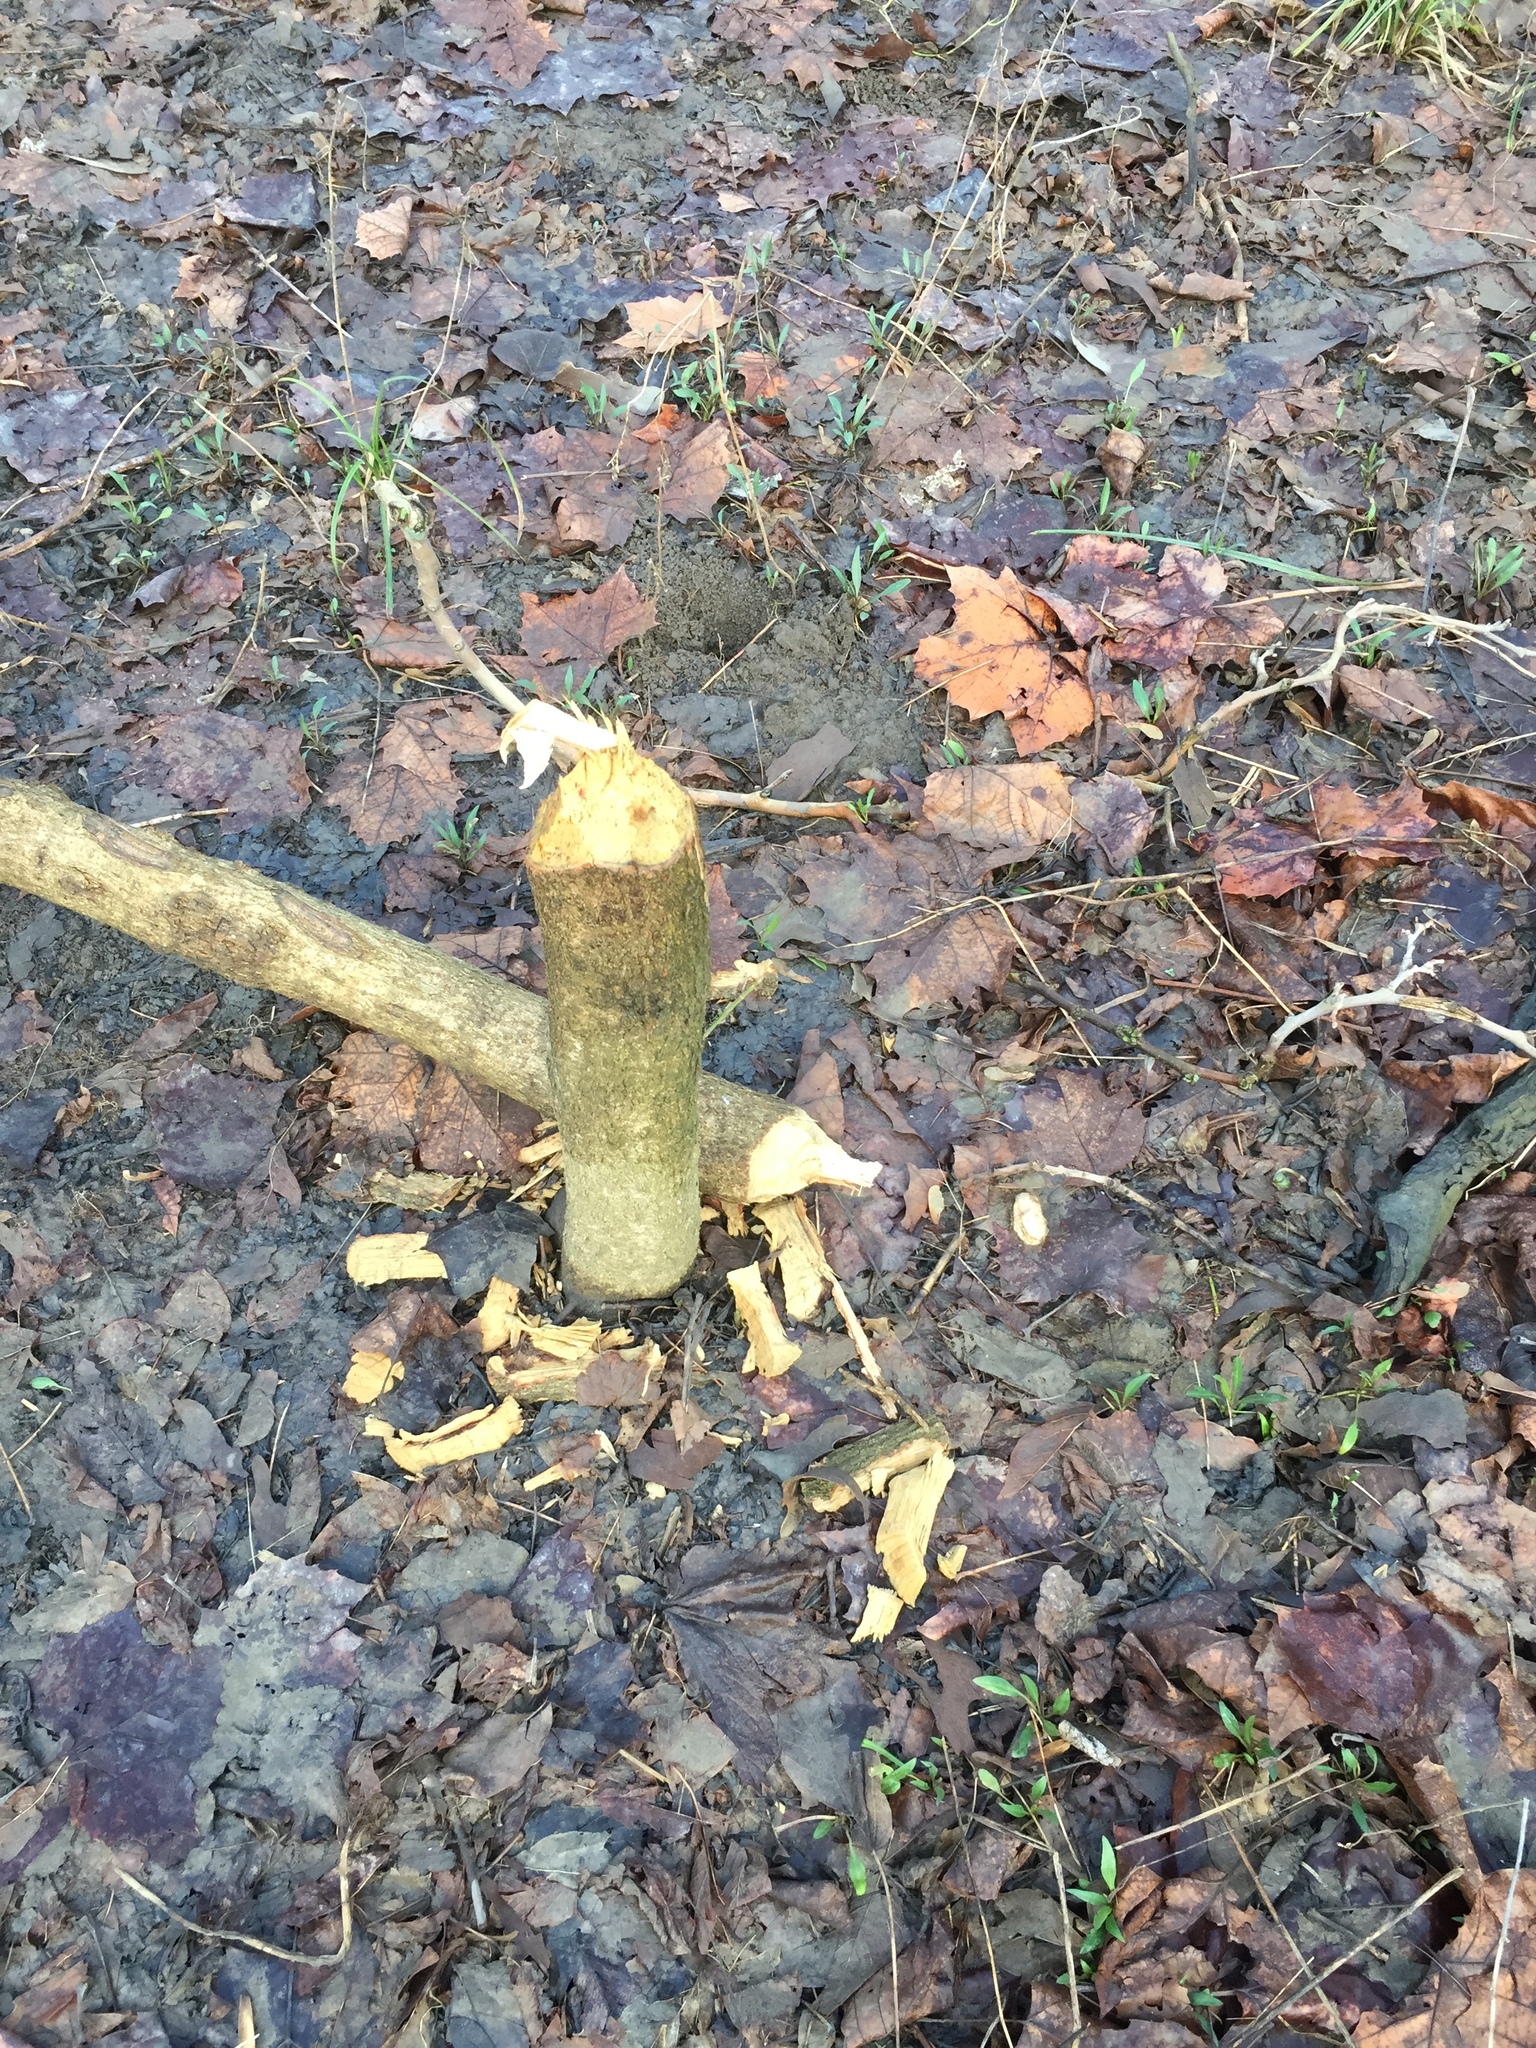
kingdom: Animalia
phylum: Chordata
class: Mammalia
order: Rodentia
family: Castoridae
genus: Castor
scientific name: Castor canadensis
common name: American beaver
